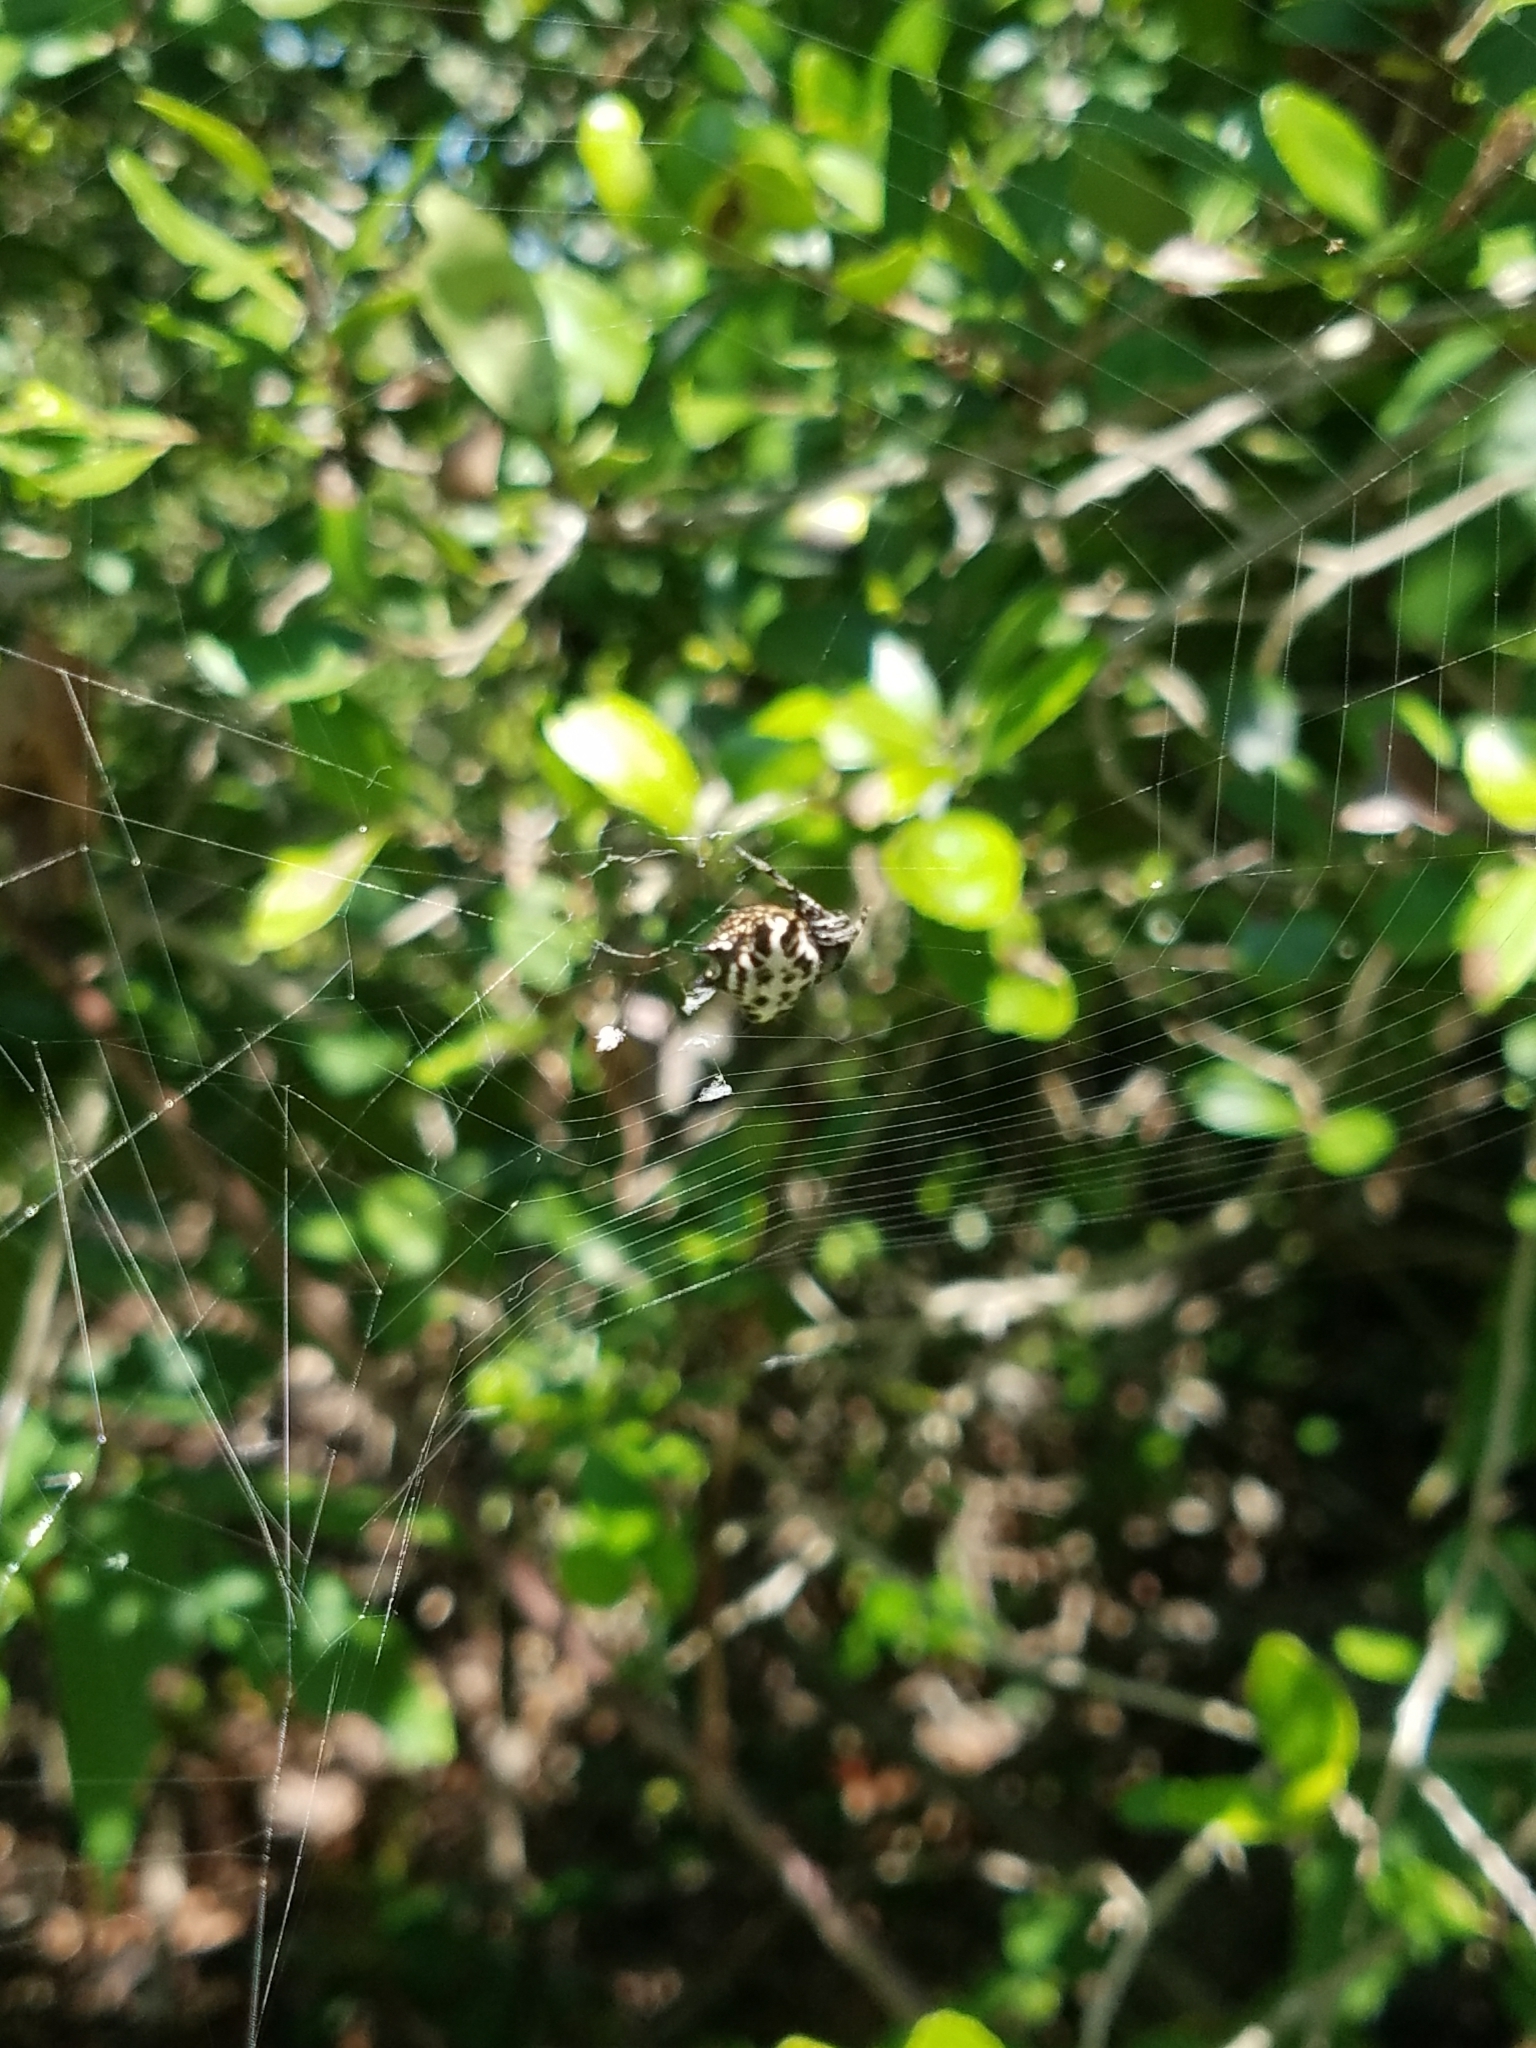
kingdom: Animalia
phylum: Arthropoda
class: Arachnida
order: Araneae
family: Araneidae
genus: Gasteracantha
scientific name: Gasteracantha cancriformis
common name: Orb weavers
